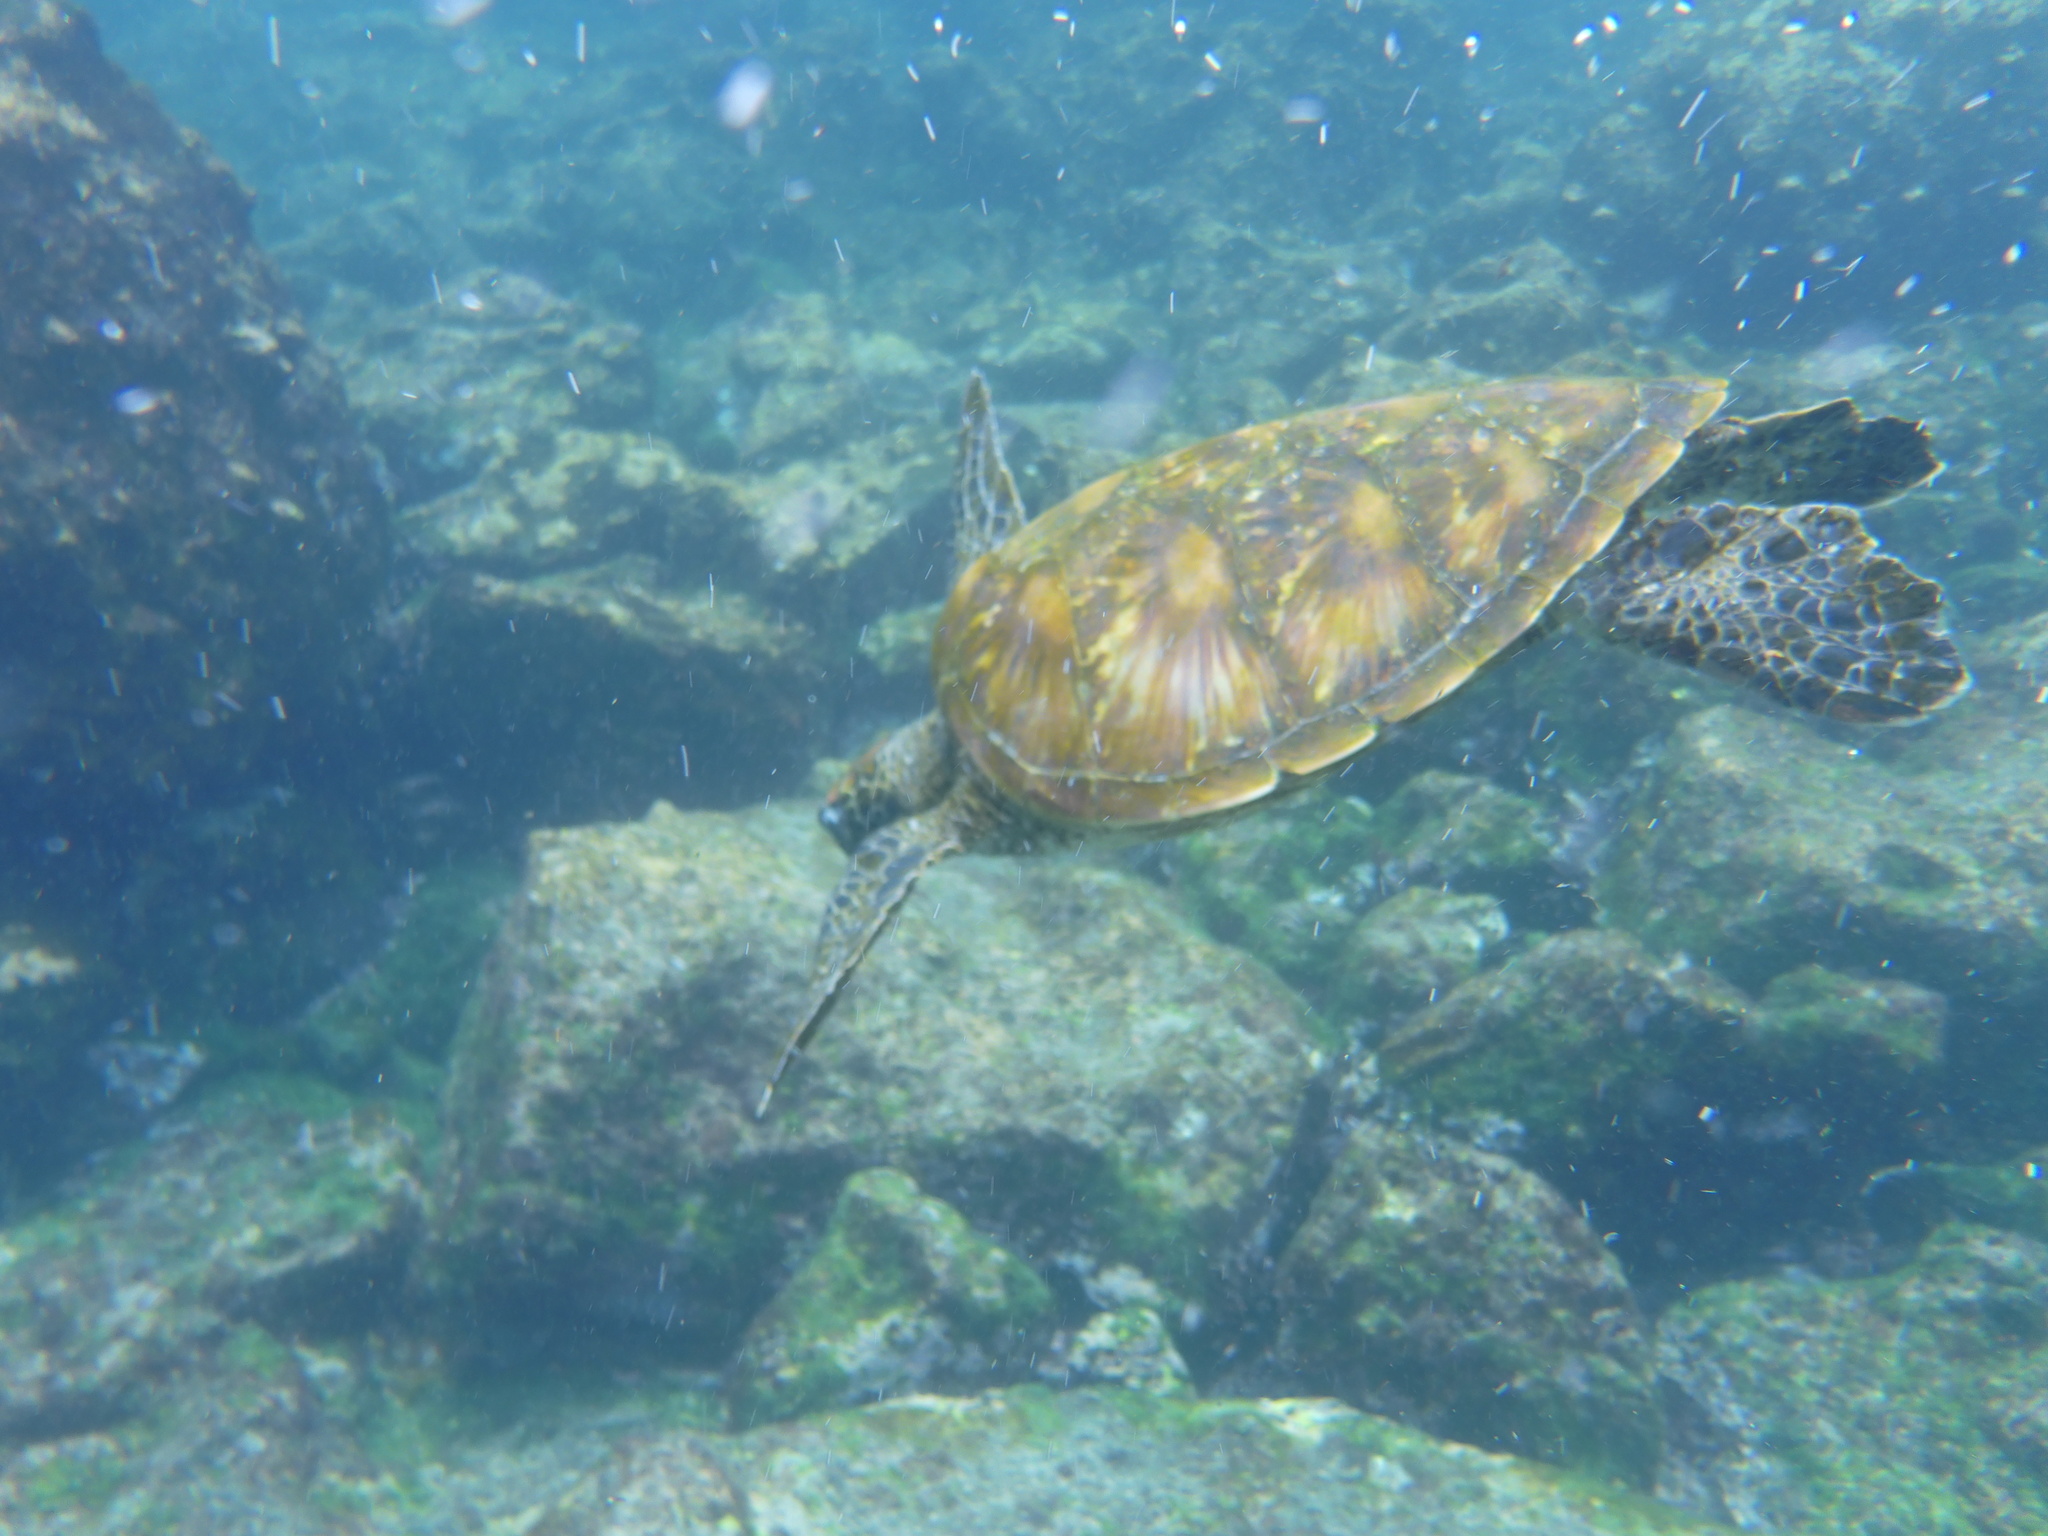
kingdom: Animalia
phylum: Chordata
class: Testudines
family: Cheloniidae
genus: Chelonia
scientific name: Chelonia mydas
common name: Green turtle
